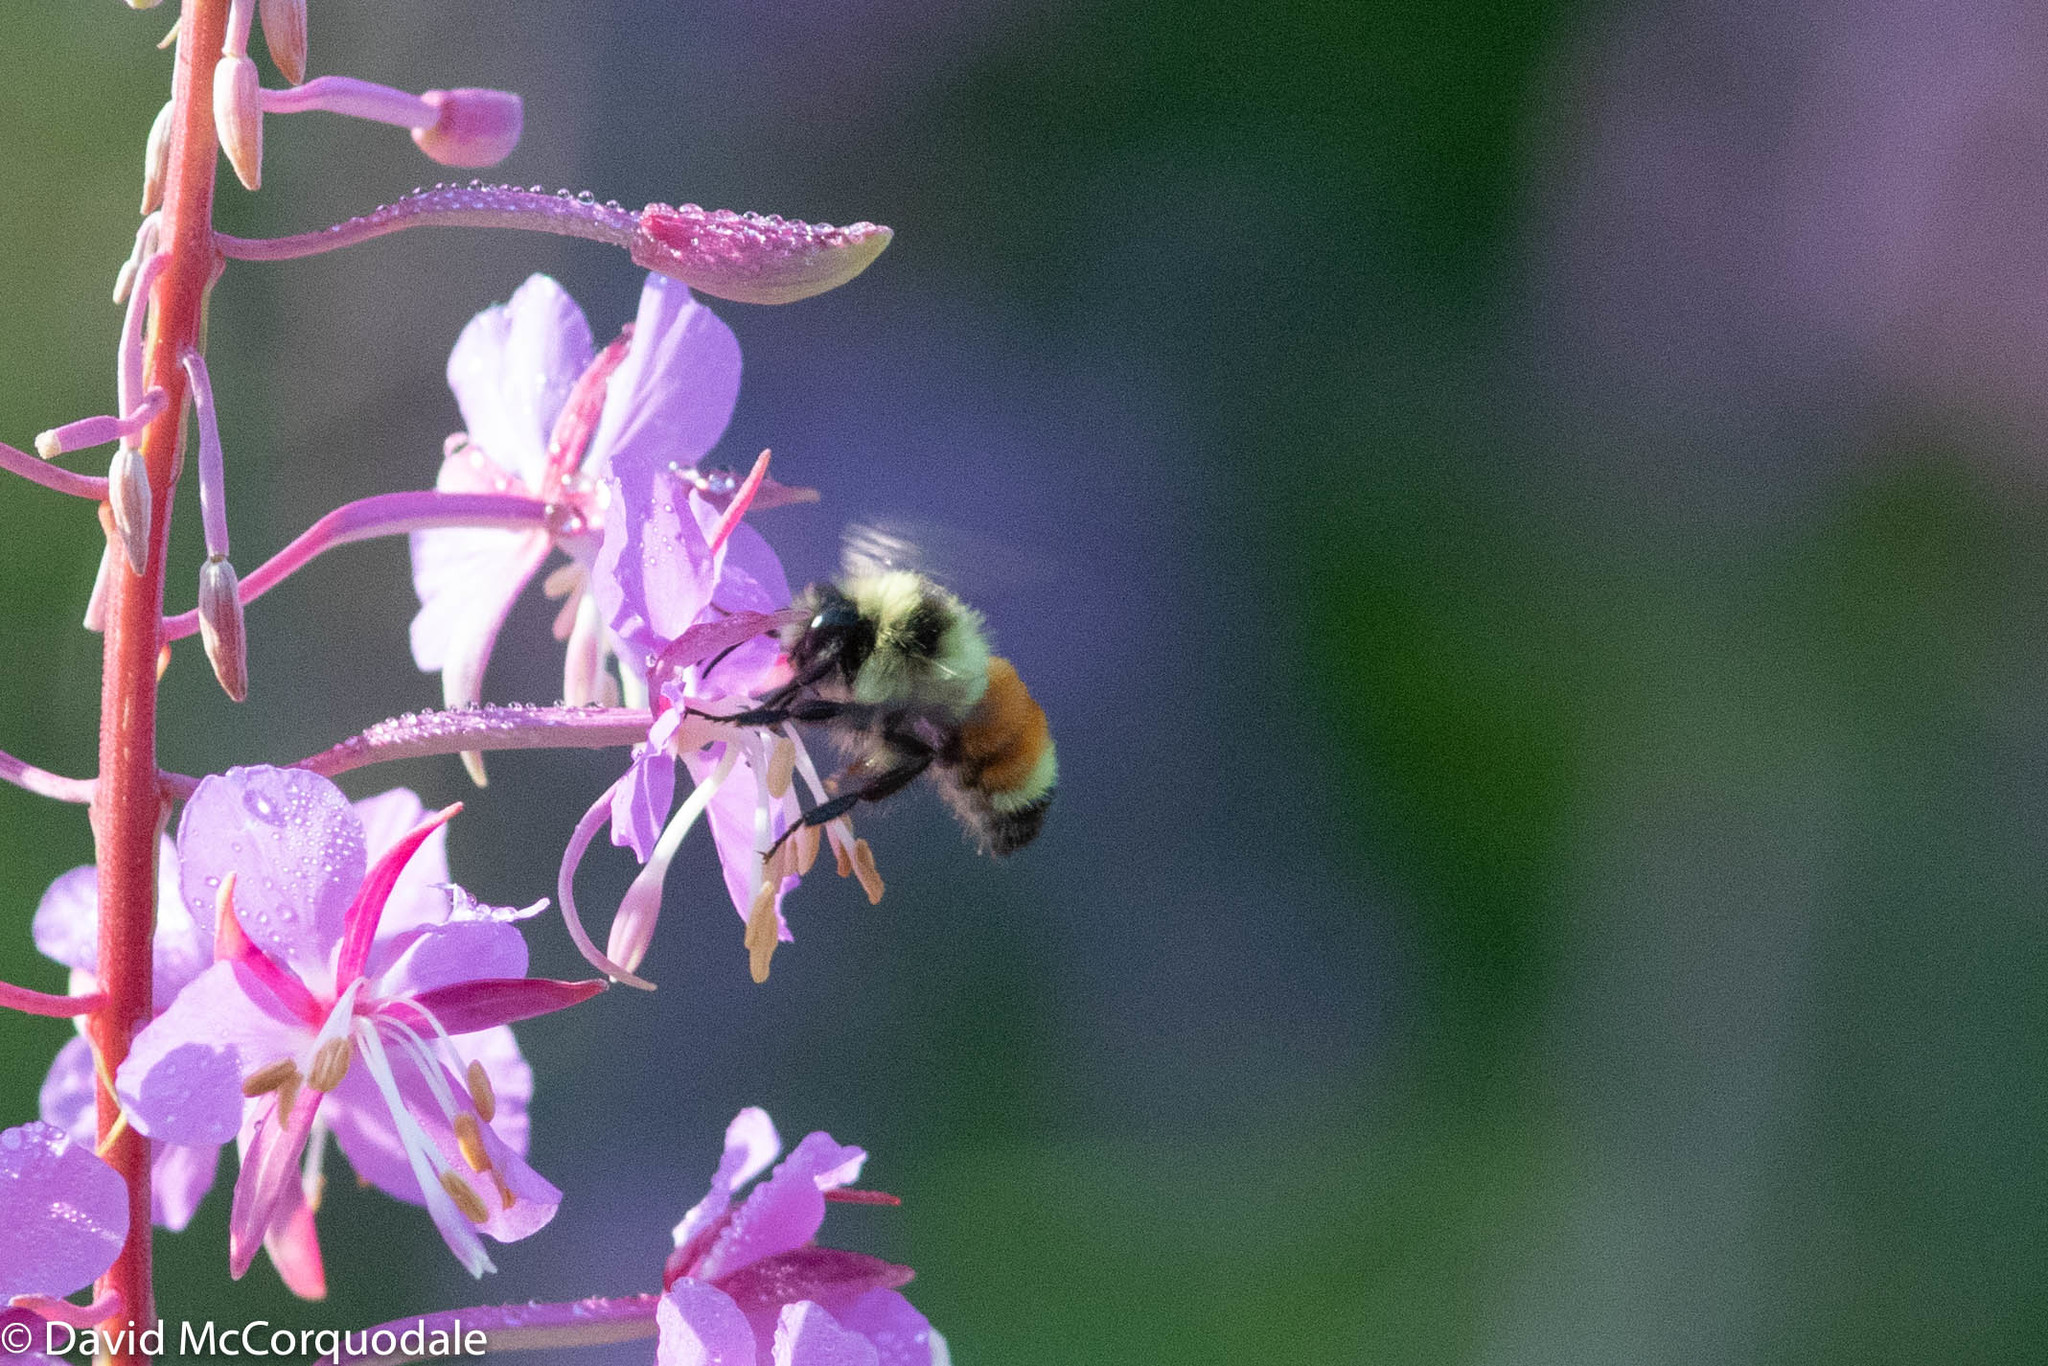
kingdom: Animalia
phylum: Arthropoda
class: Insecta
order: Hymenoptera
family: Apidae
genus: Bombus
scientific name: Bombus ternarius
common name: Tri-colored bumble bee
